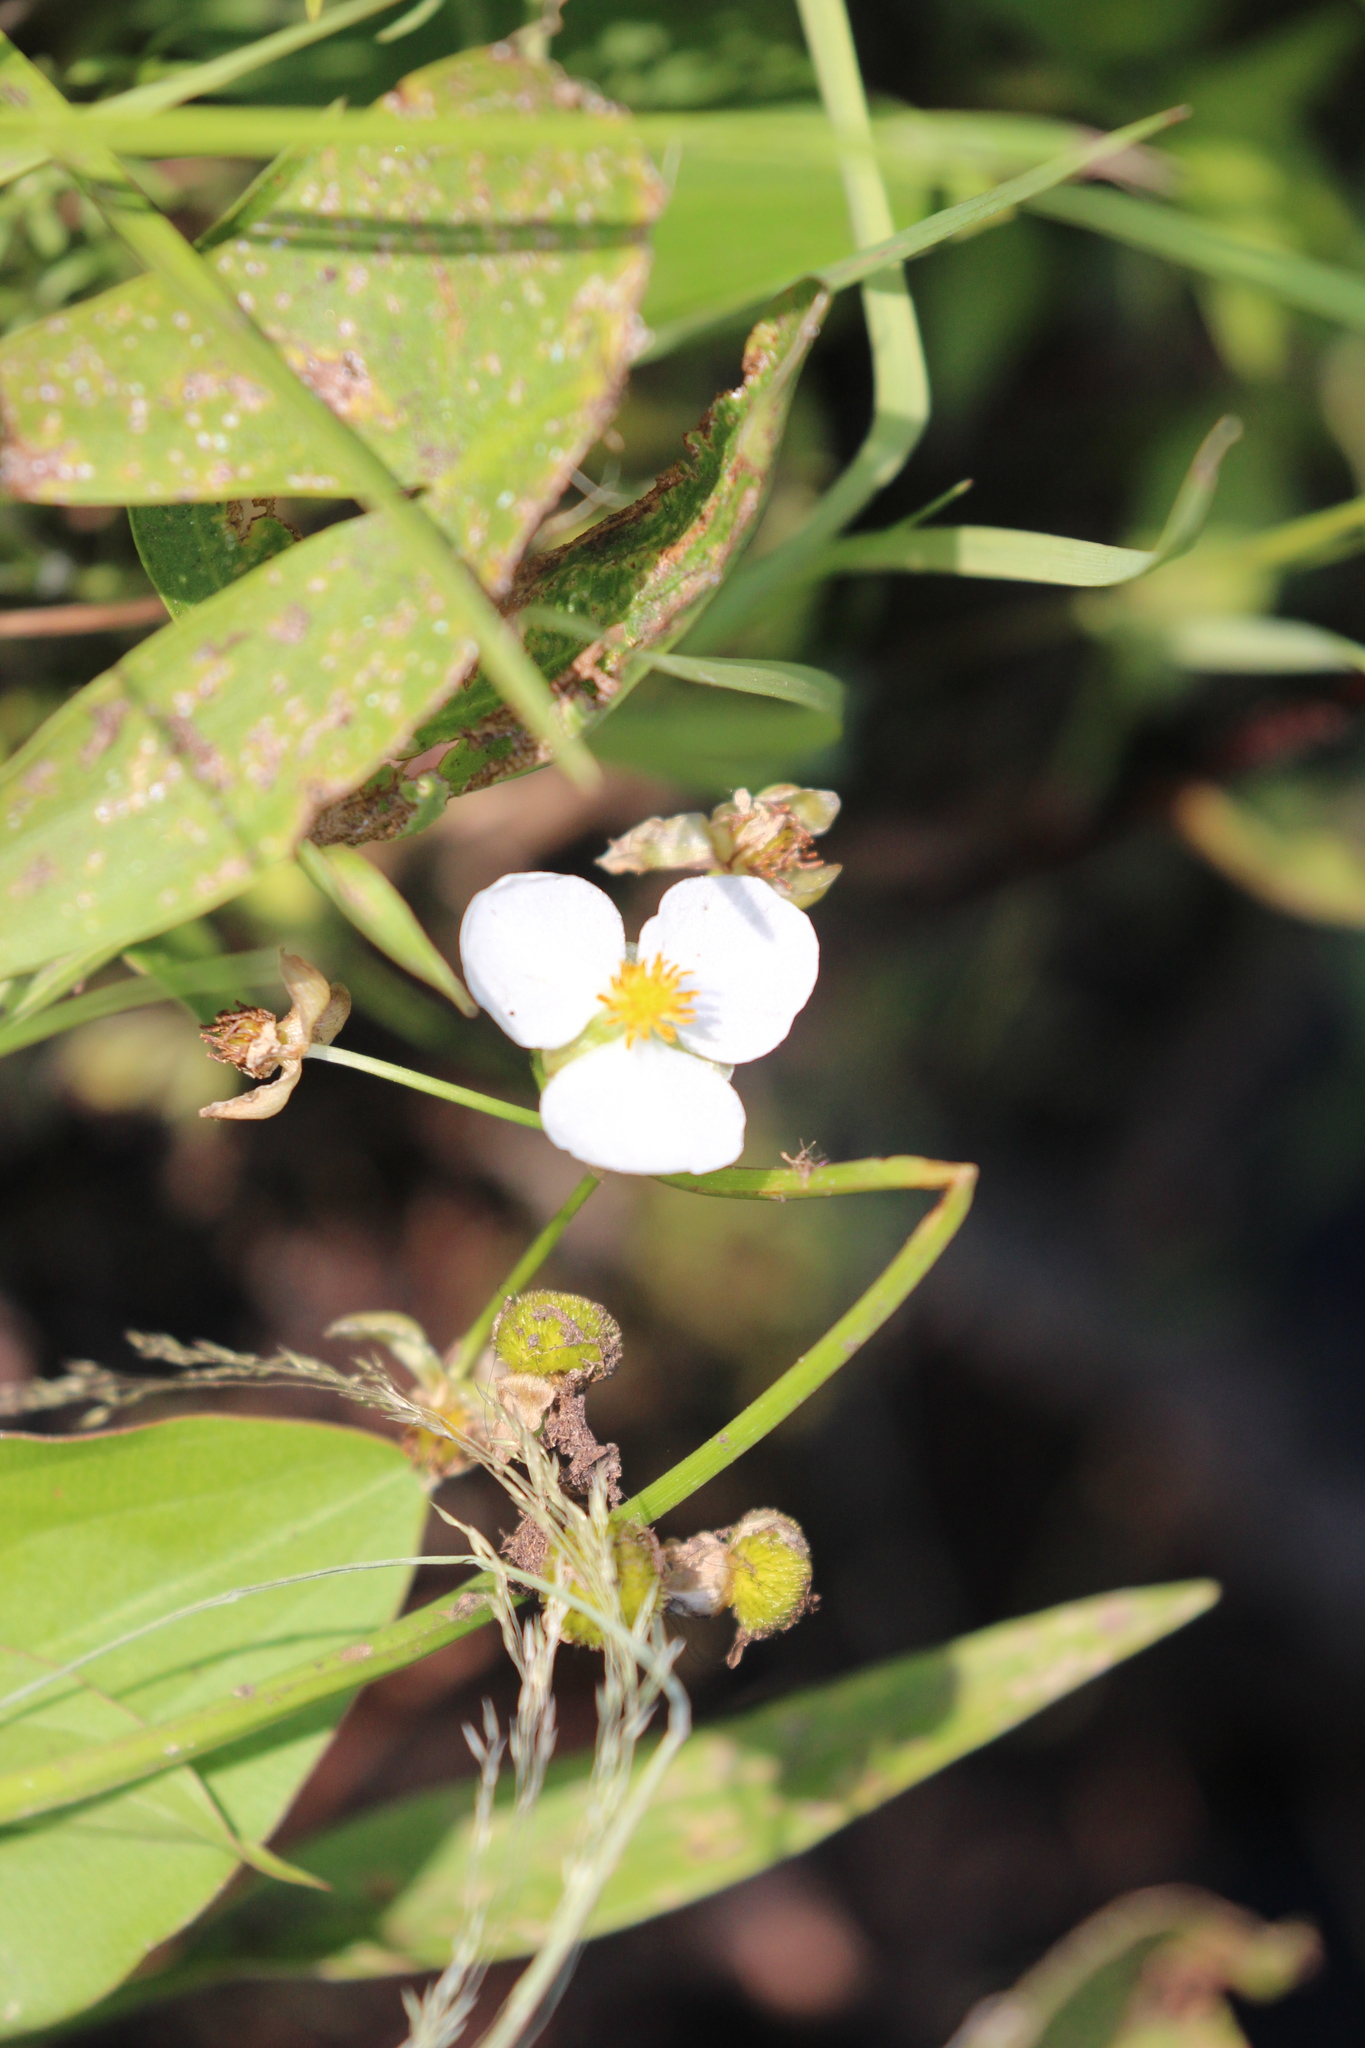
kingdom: Plantae
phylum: Tracheophyta
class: Liliopsida
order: Alismatales
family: Alismataceae
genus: Sagittaria
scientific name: Sagittaria latifolia
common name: Duck-potato
